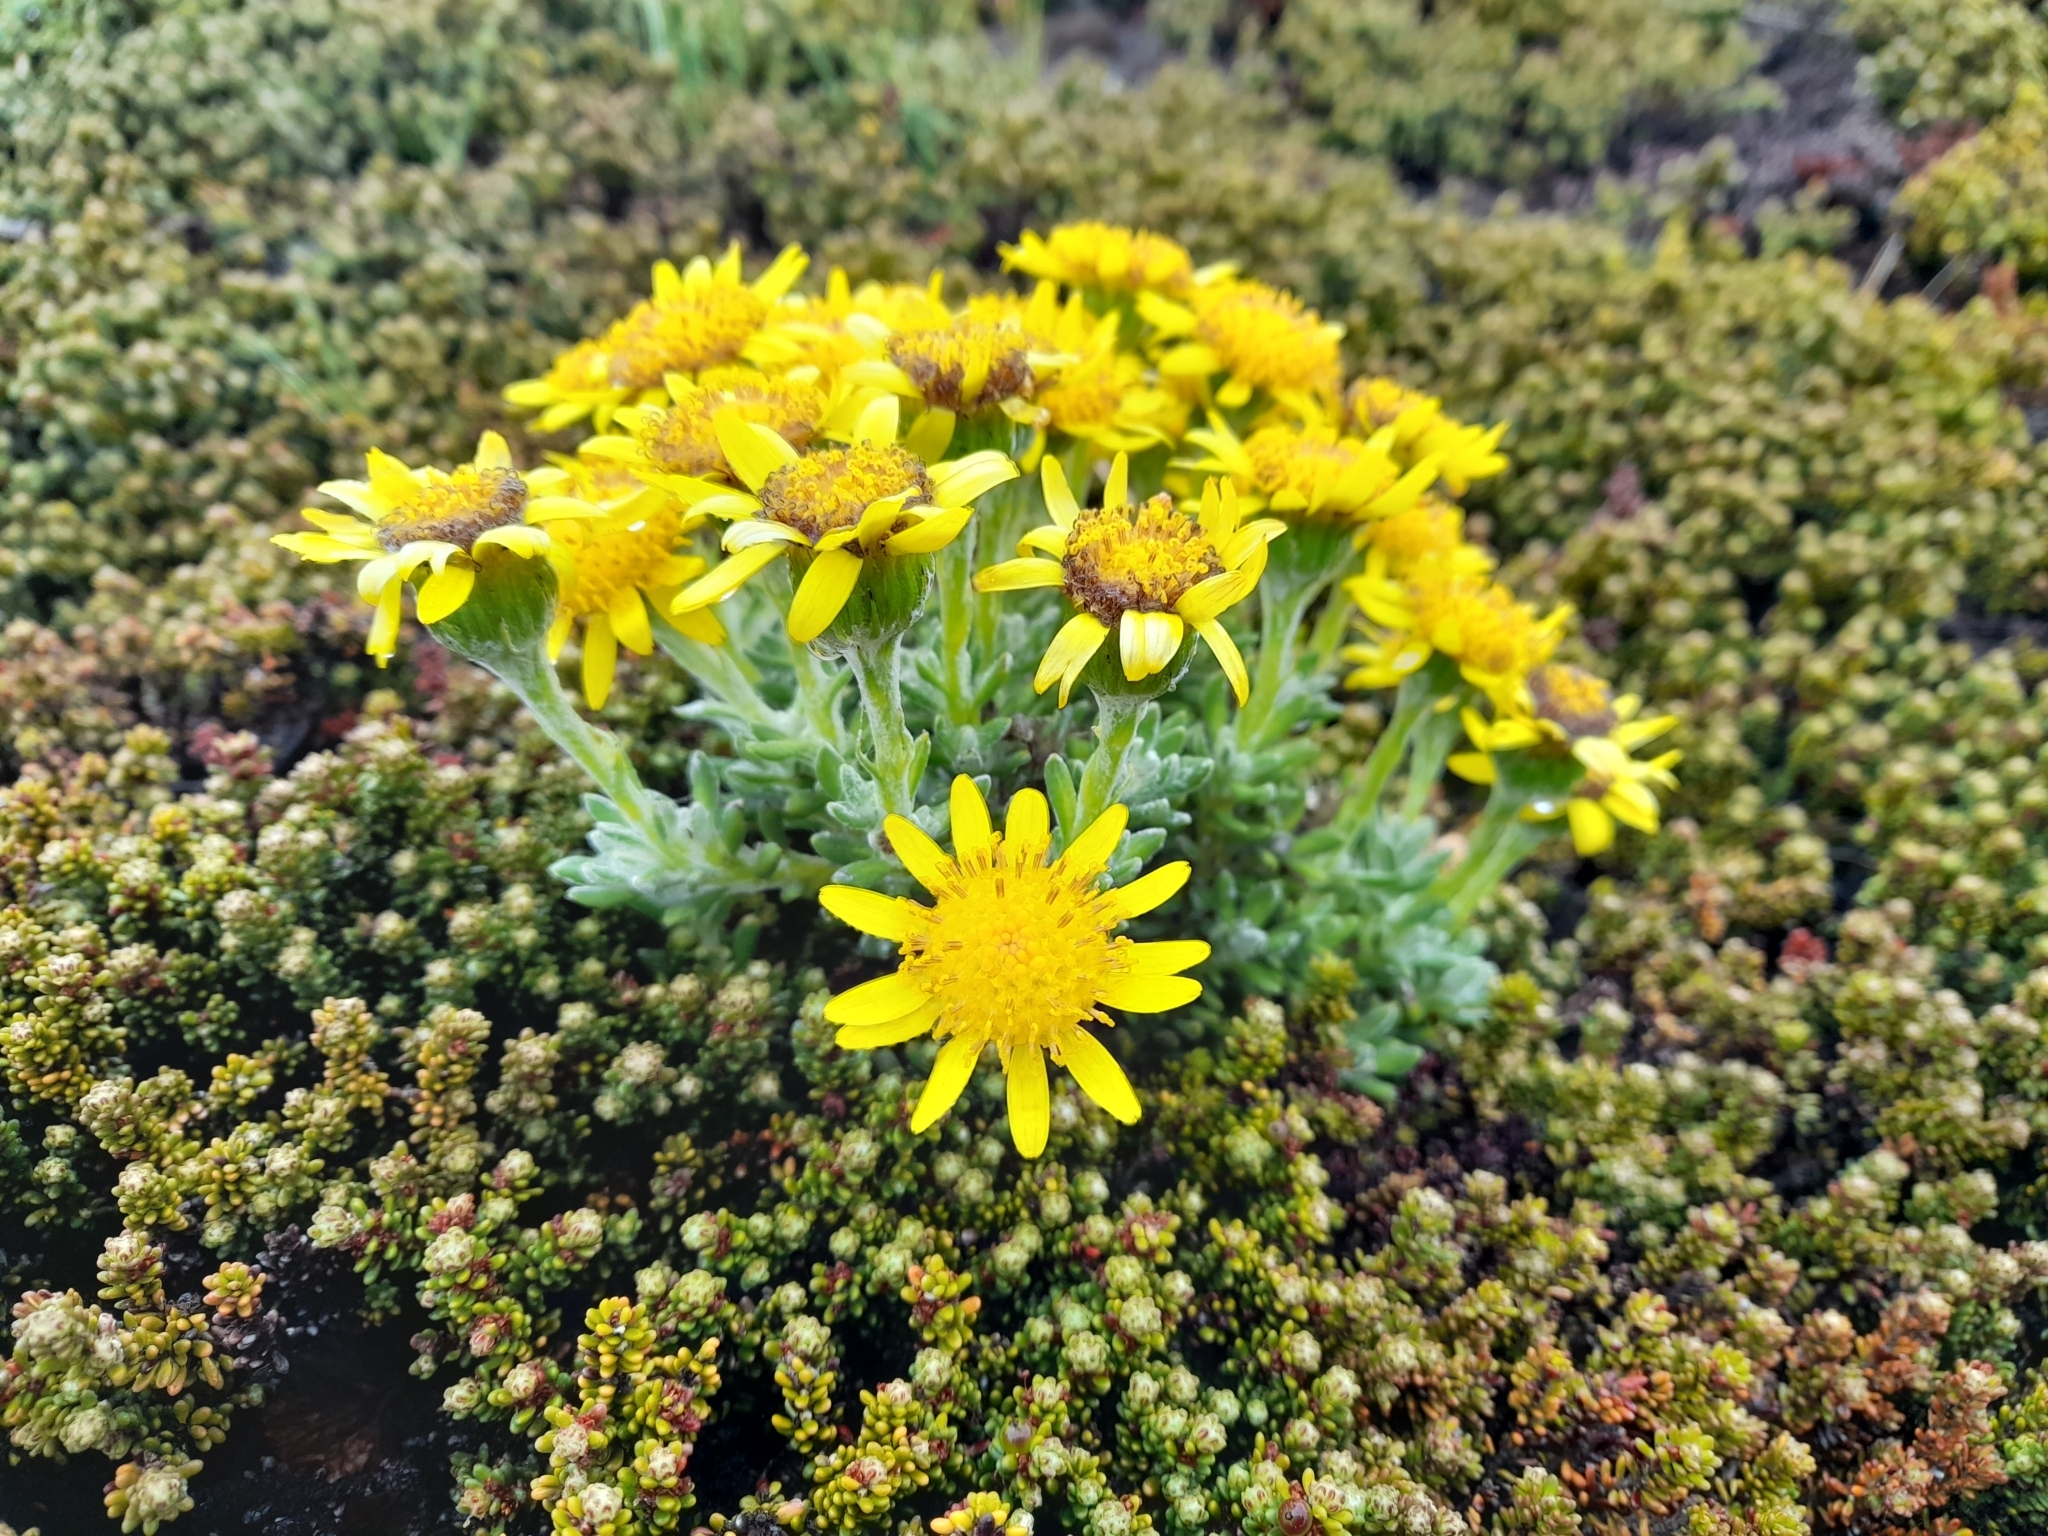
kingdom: Plantae
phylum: Tracheophyta
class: Magnoliopsida
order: Asterales
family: Asteraceae
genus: Senecio
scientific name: Senecio falklandicus
